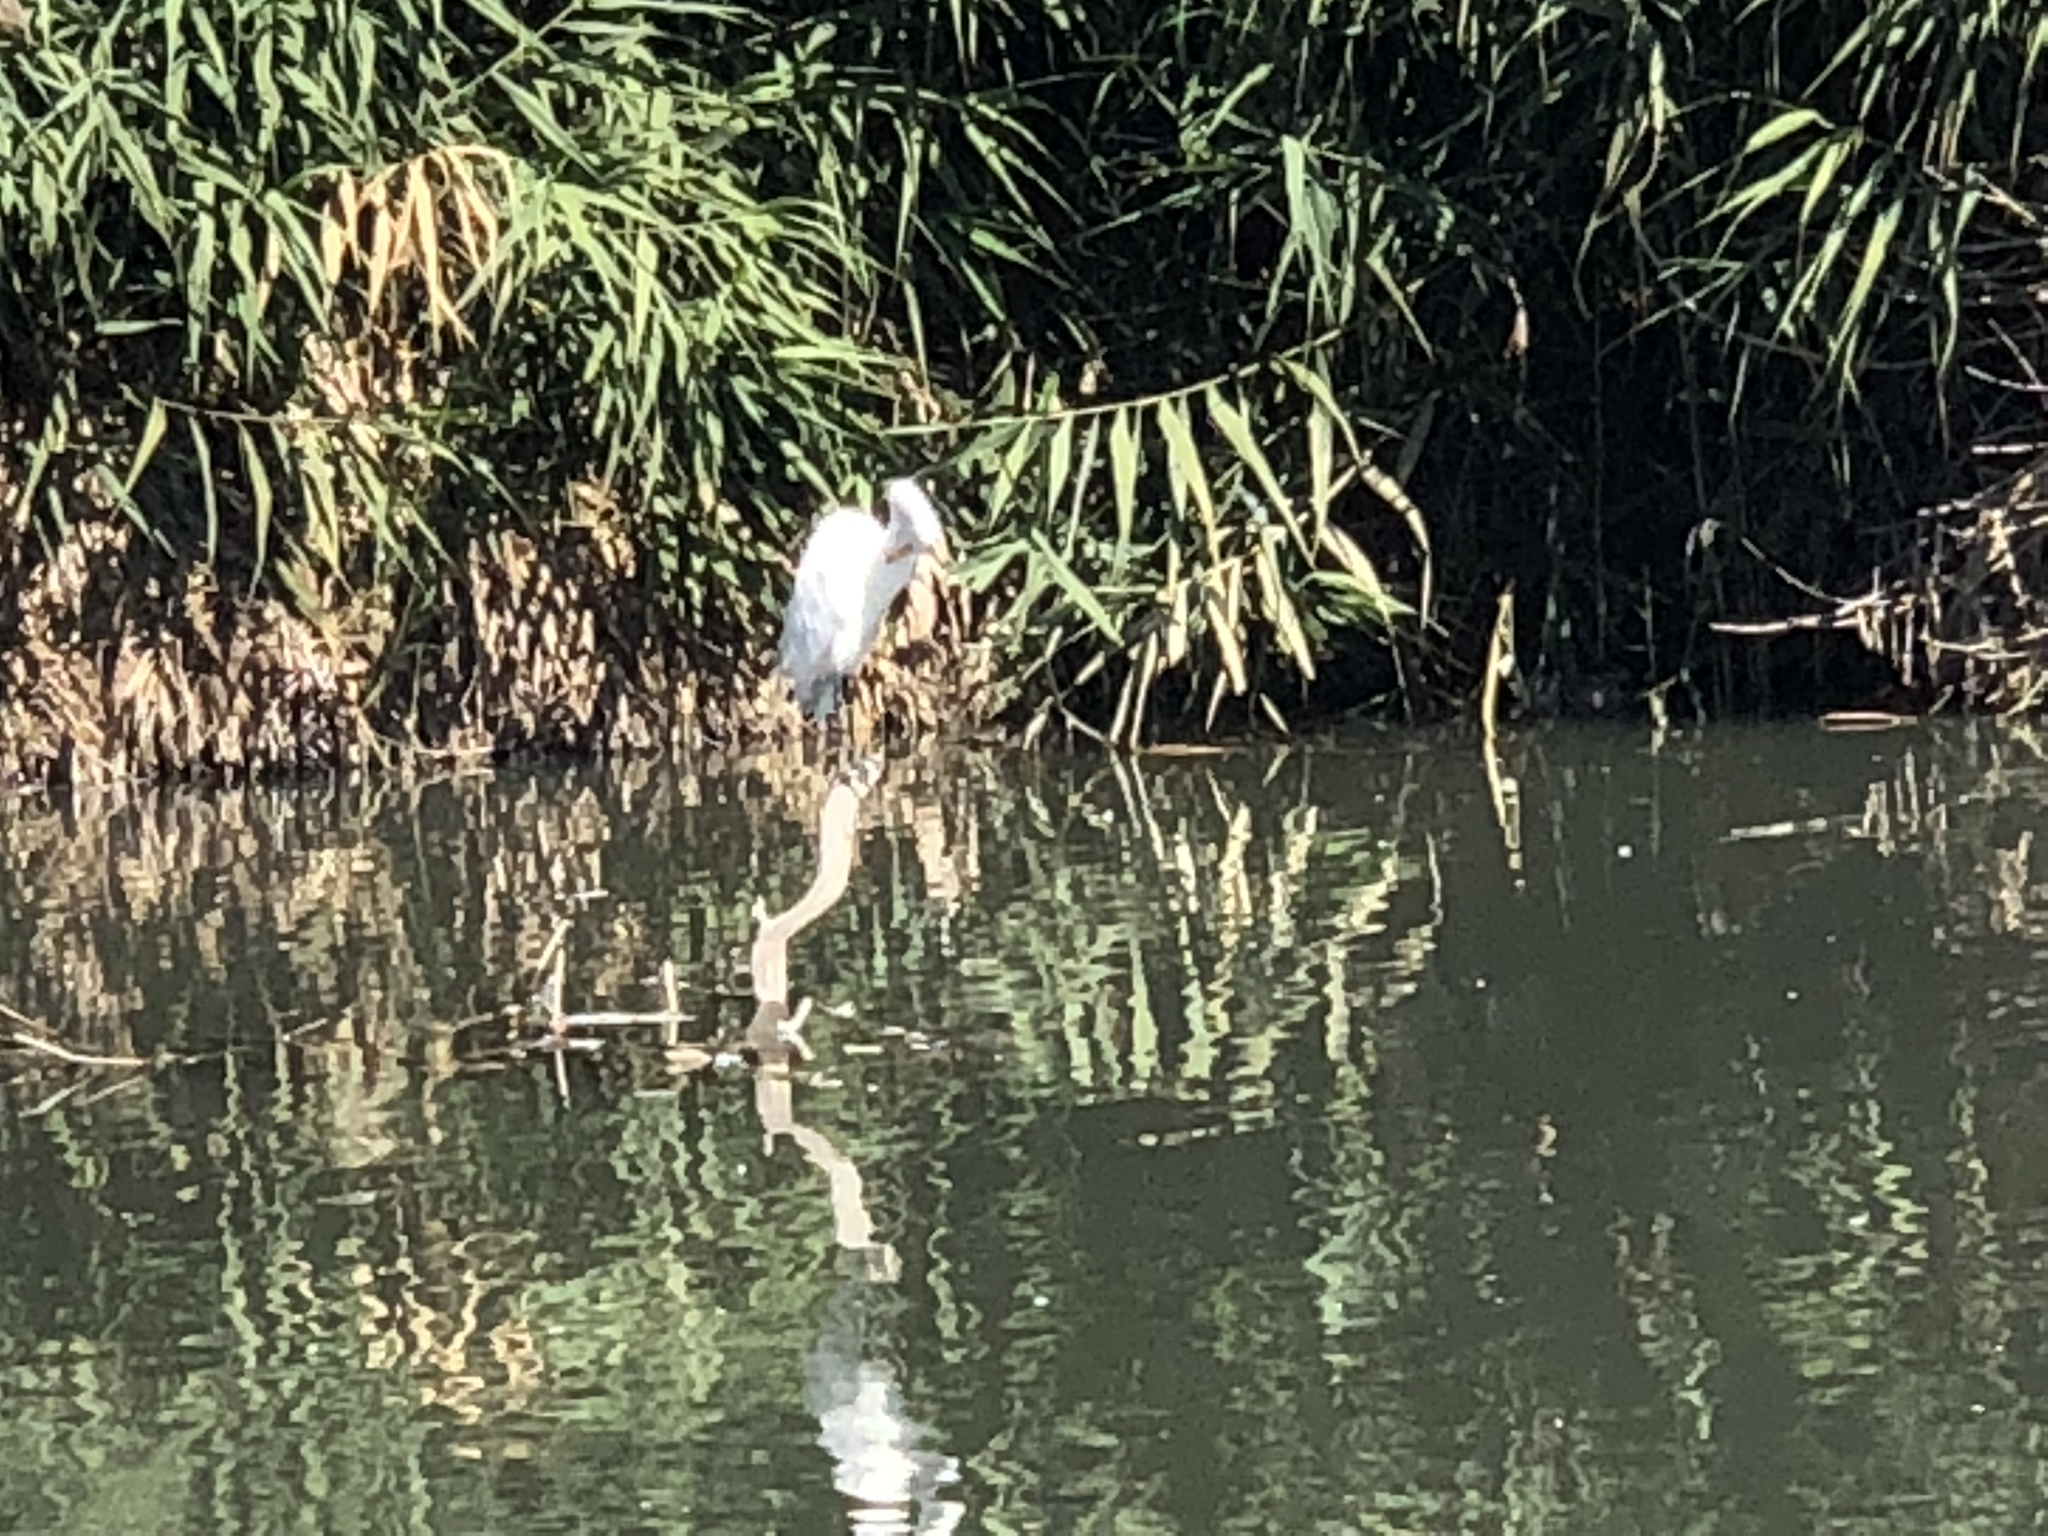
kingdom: Animalia
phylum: Chordata
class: Aves
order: Pelecaniformes
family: Ardeidae
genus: Ardea
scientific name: Ardea alba
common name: Great egret
